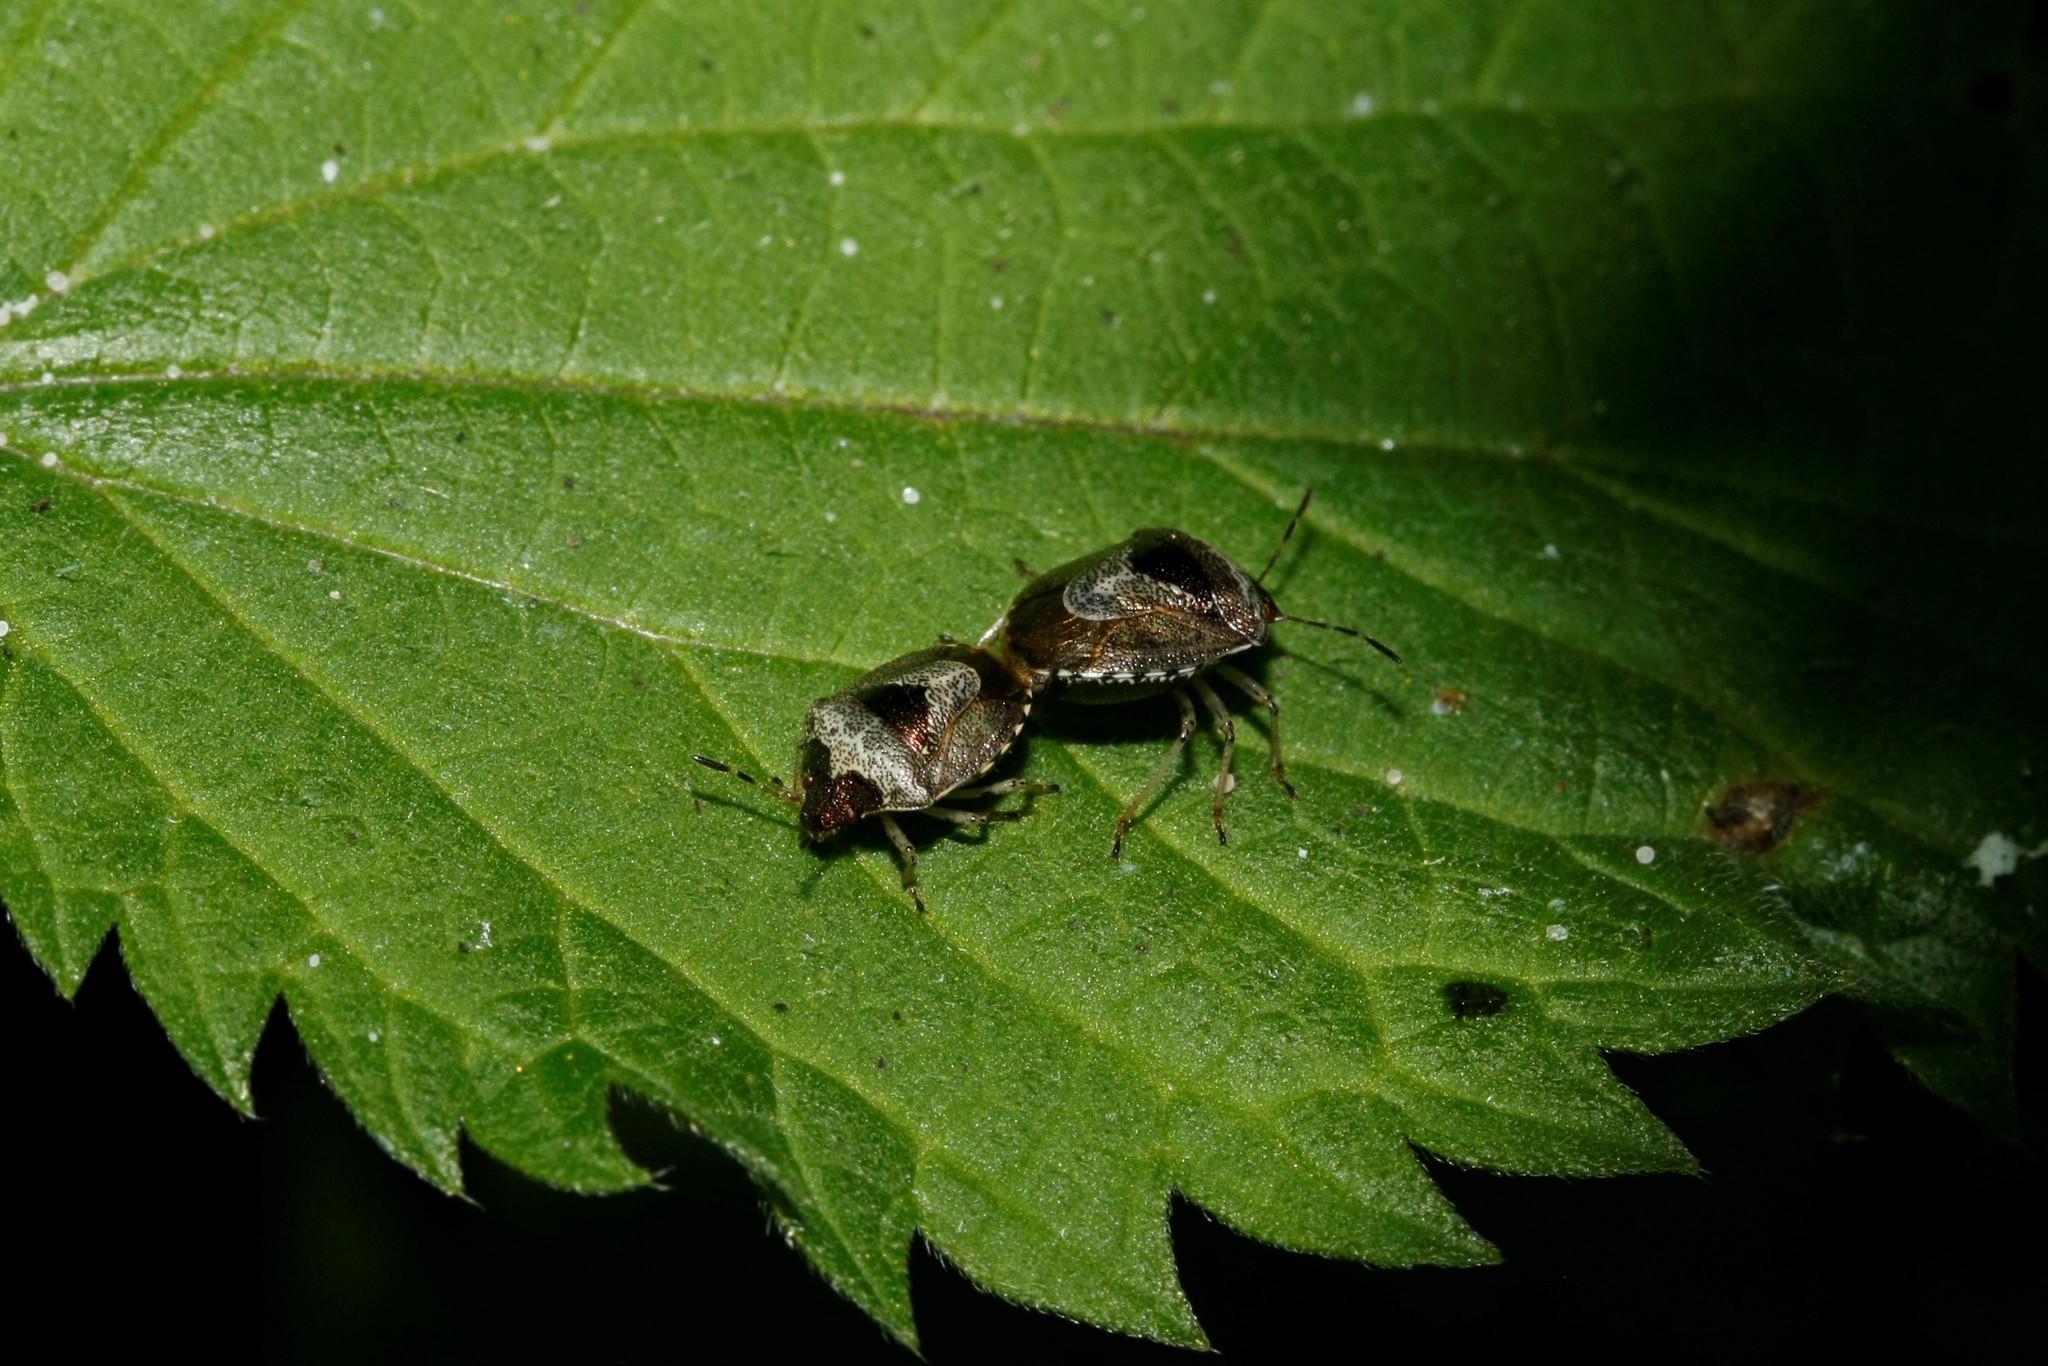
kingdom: Animalia
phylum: Arthropoda
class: Insecta
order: Hemiptera
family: Pentatomidae
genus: Eysarcoris
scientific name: Eysarcoris venustissimus
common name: Woundwort shieldbug
